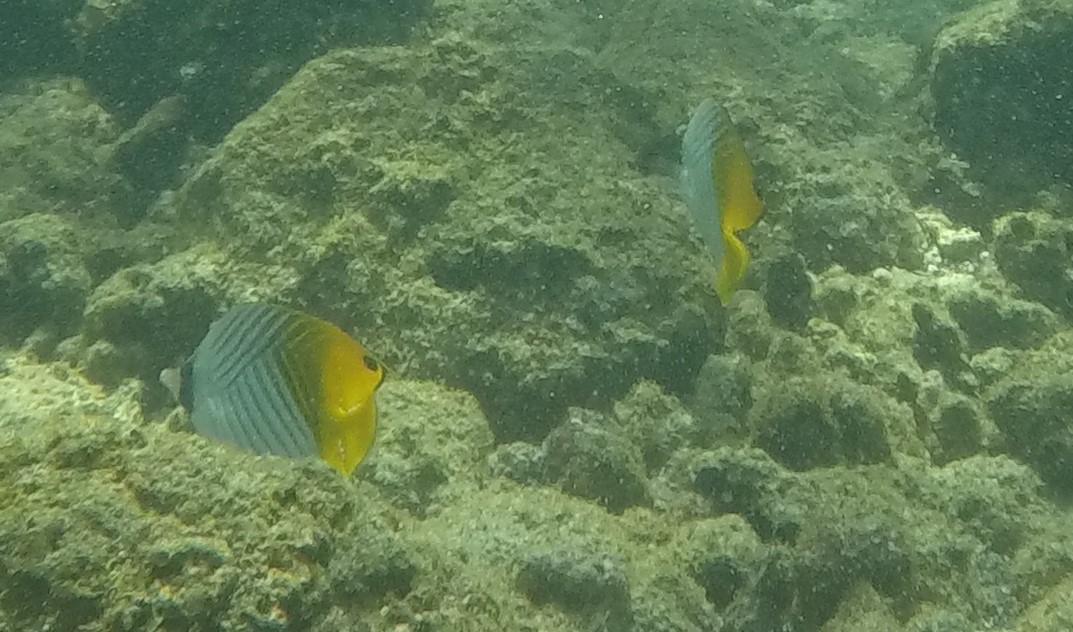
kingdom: Animalia
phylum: Chordata
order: Perciformes
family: Chaetodontidae
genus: Chaetodon
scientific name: Chaetodon auriga
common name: Threadfin butterflyfish
